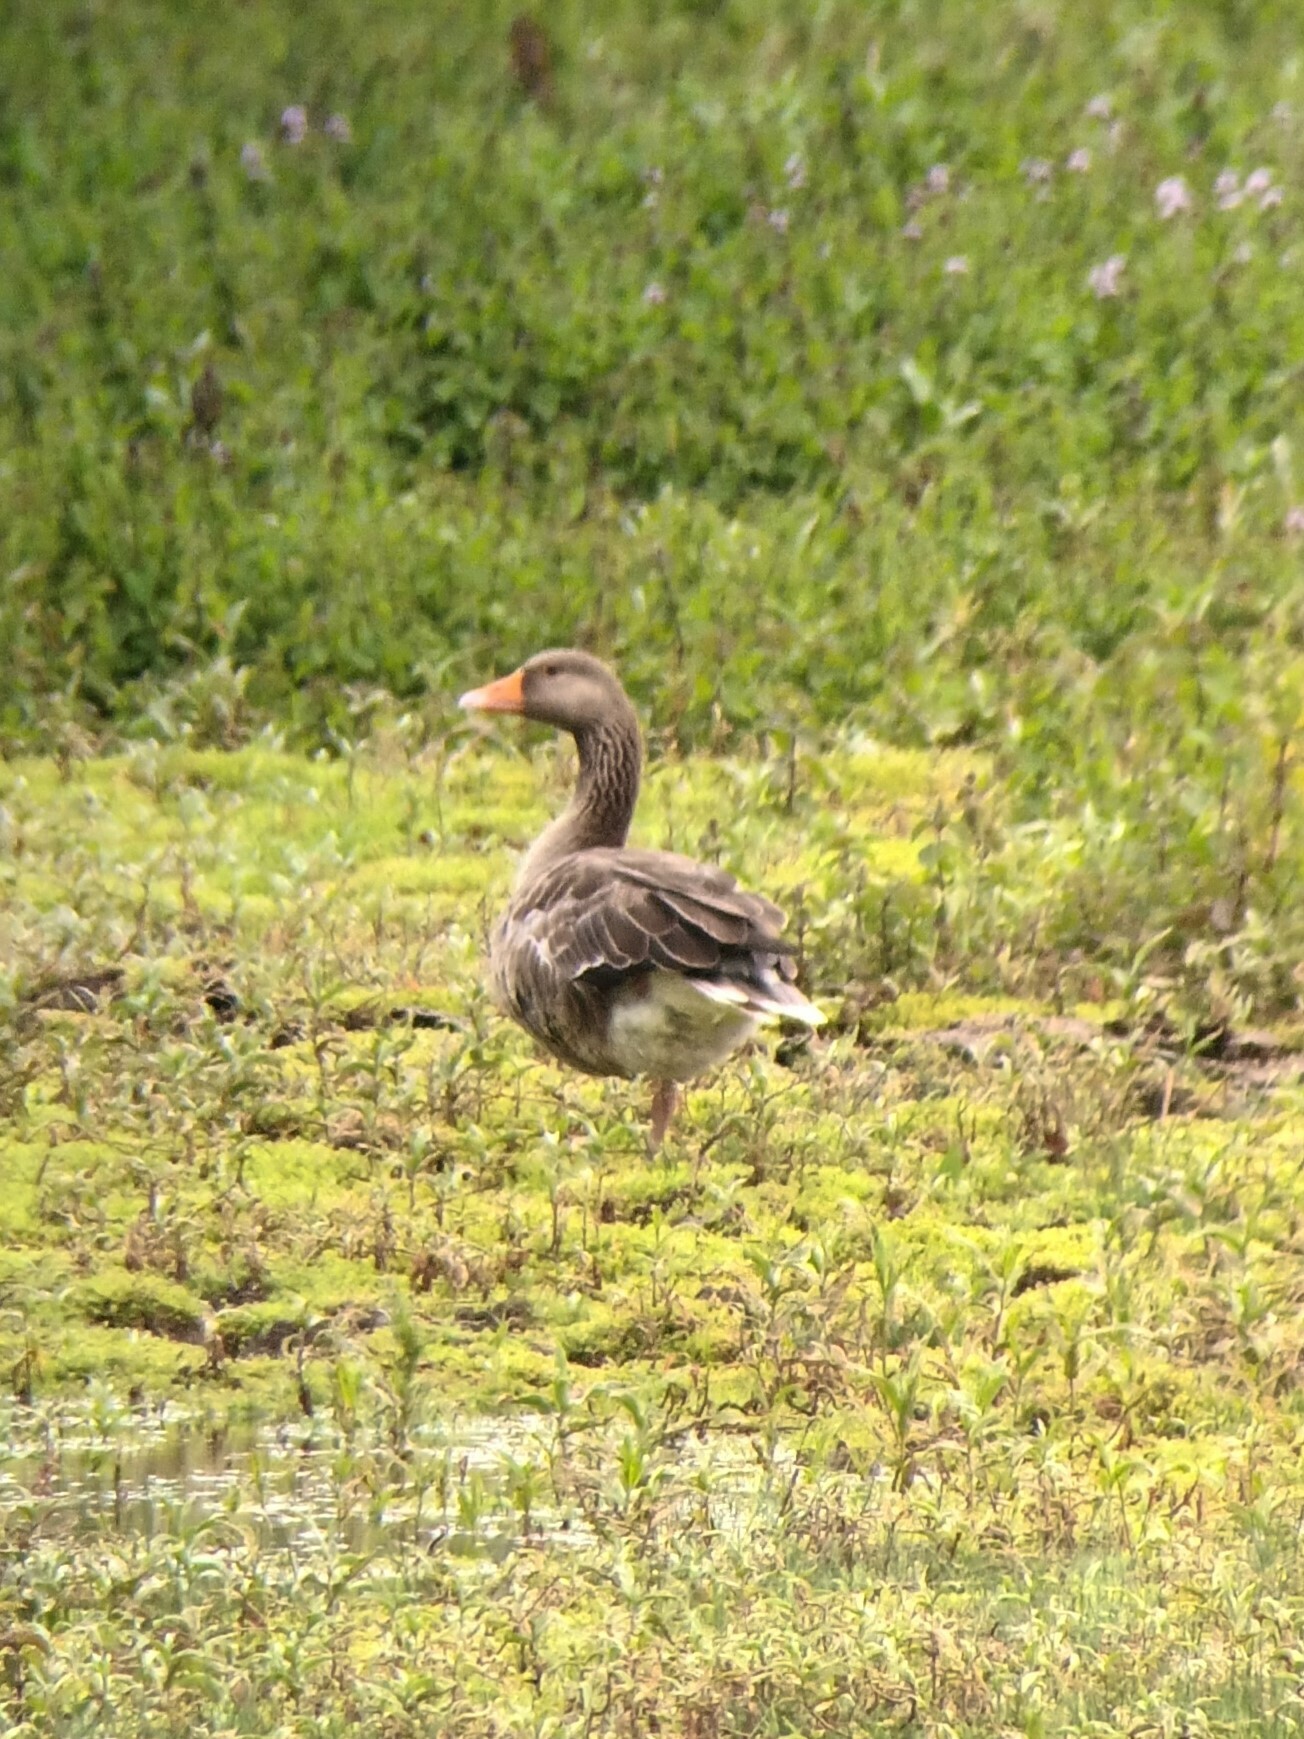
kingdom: Animalia
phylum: Chordata
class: Aves
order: Anseriformes
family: Anatidae
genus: Anser
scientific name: Anser anser
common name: Greylag goose
